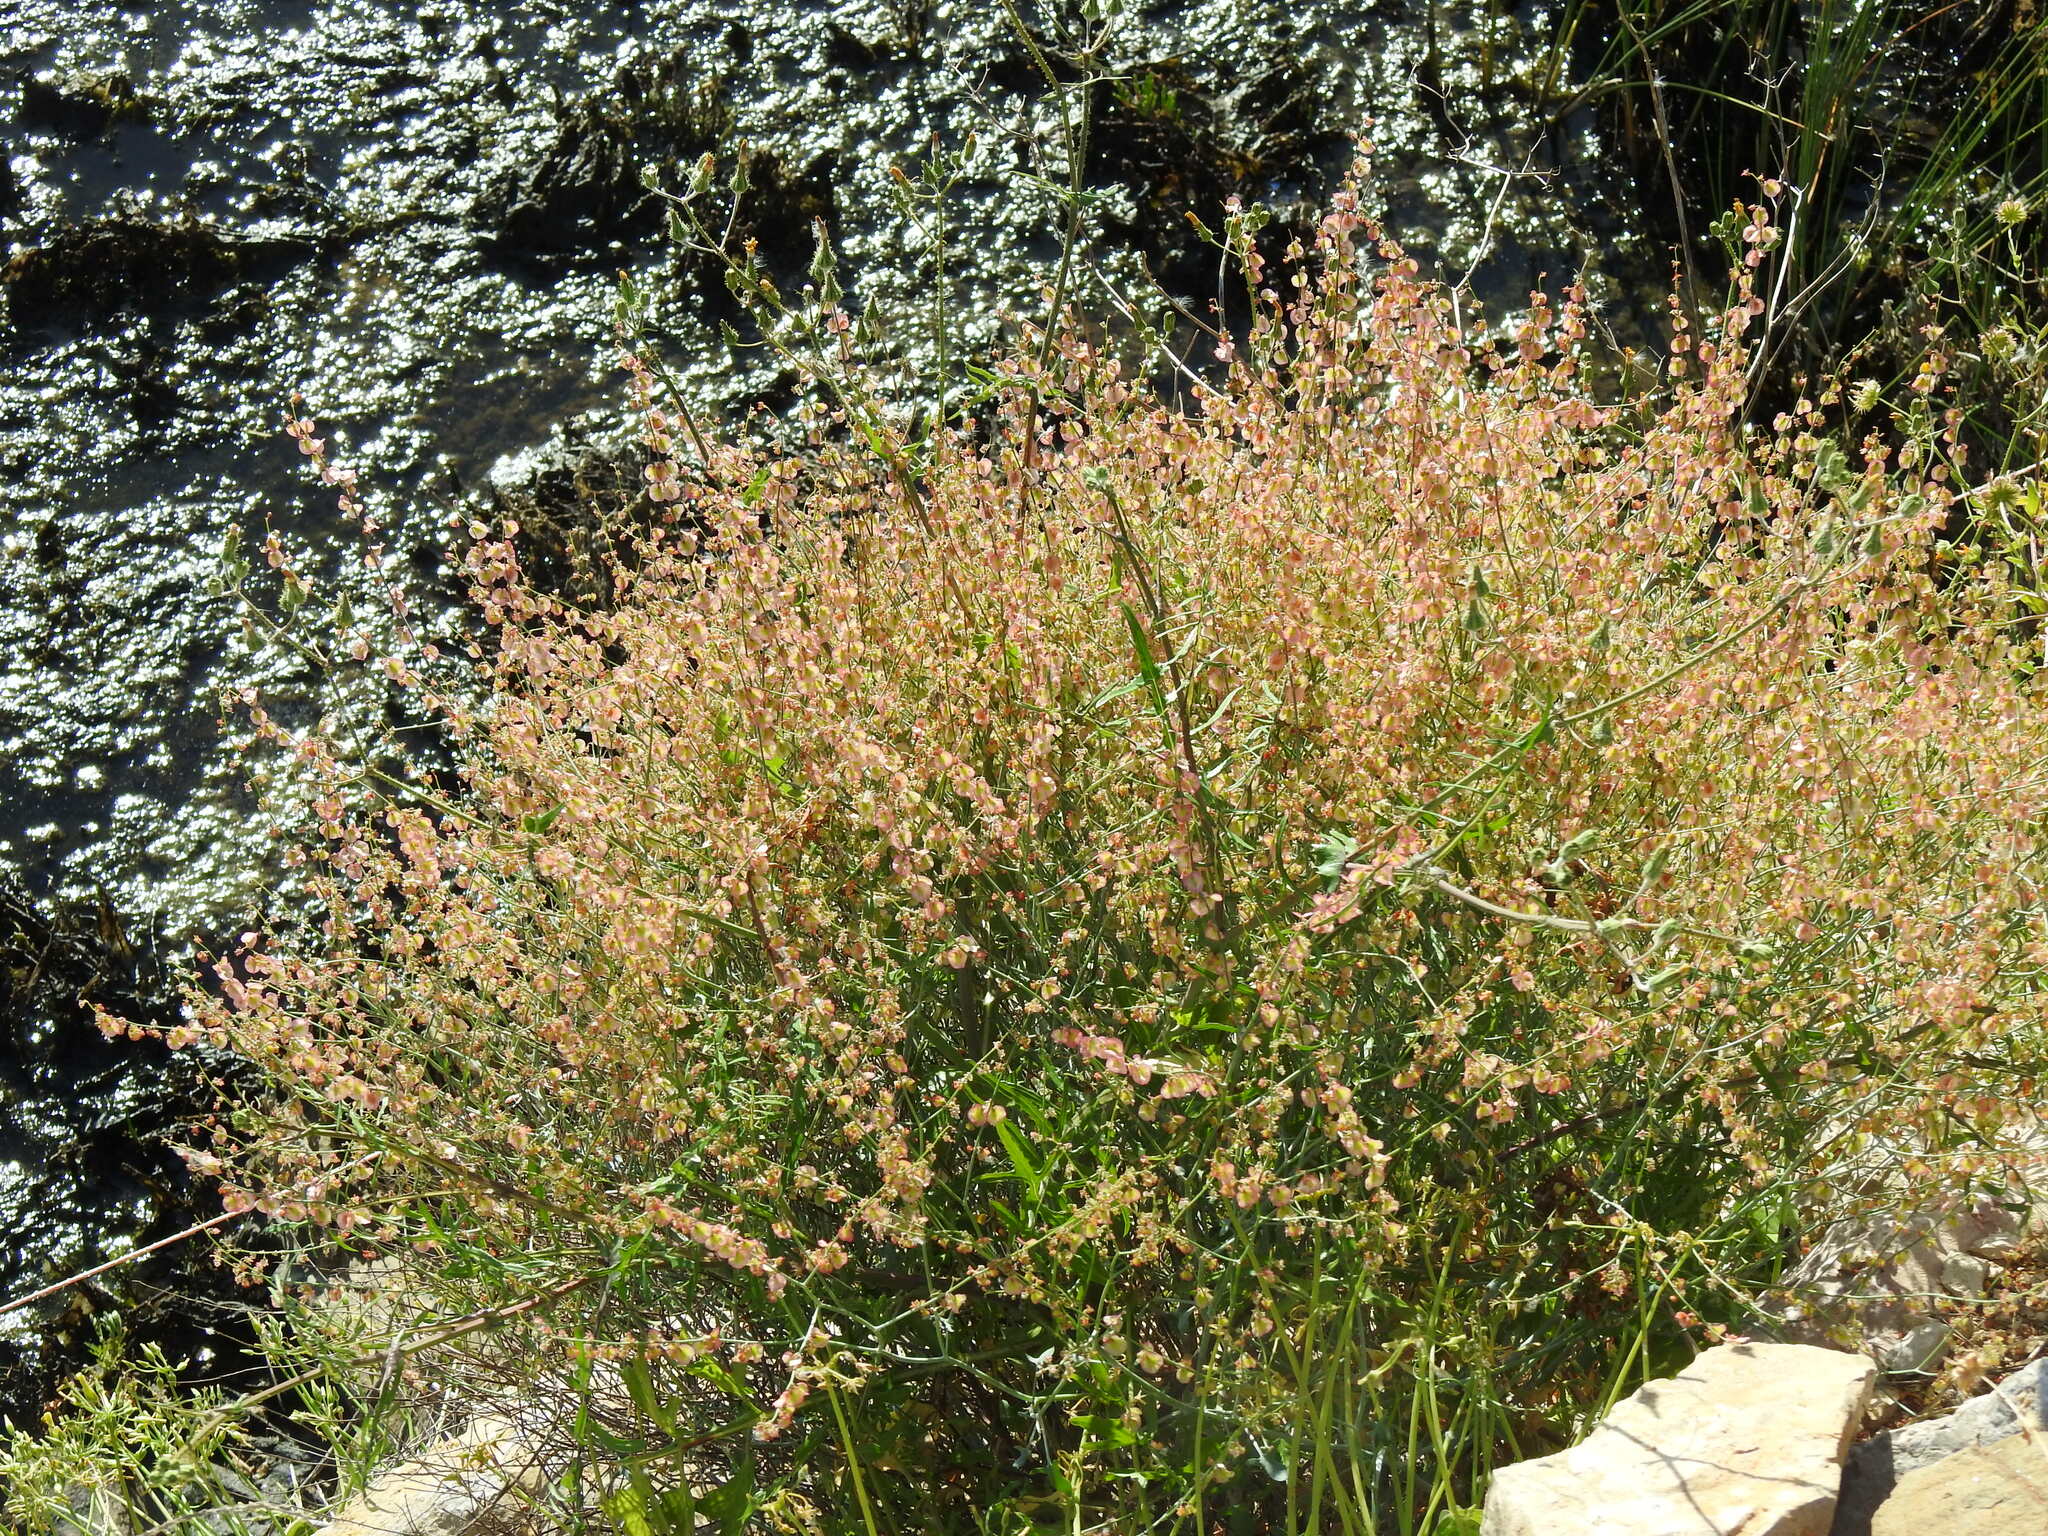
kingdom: Plantae
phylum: Tracheophyta
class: Magnoliopsida
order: Caryophyllales
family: Polygonaceae
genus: Rumex
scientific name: Rumex induratus
